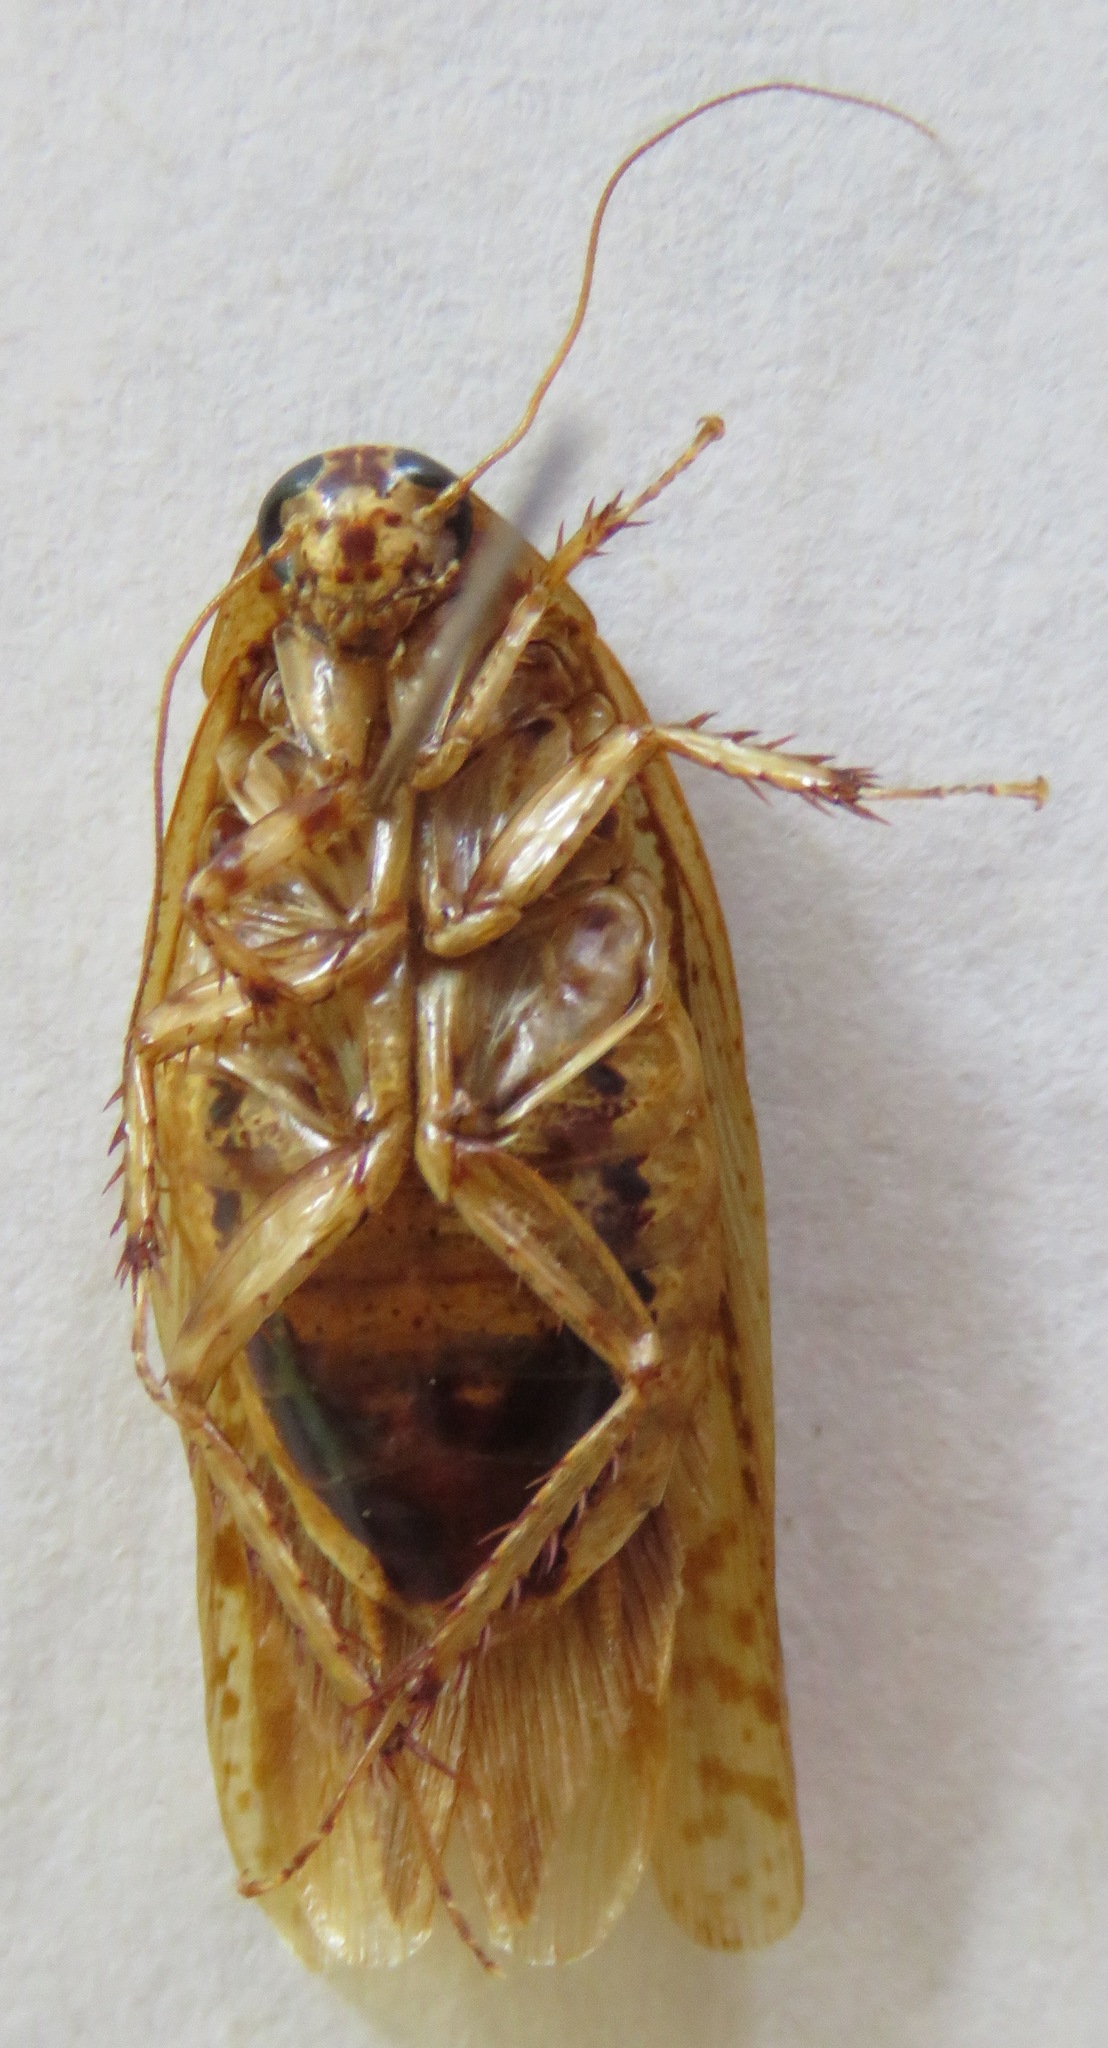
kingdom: Animalia
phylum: Arthropoda
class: Insecta
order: Blattodea
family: Blaberidae
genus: Epilampra
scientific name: Epilampra mexicana
